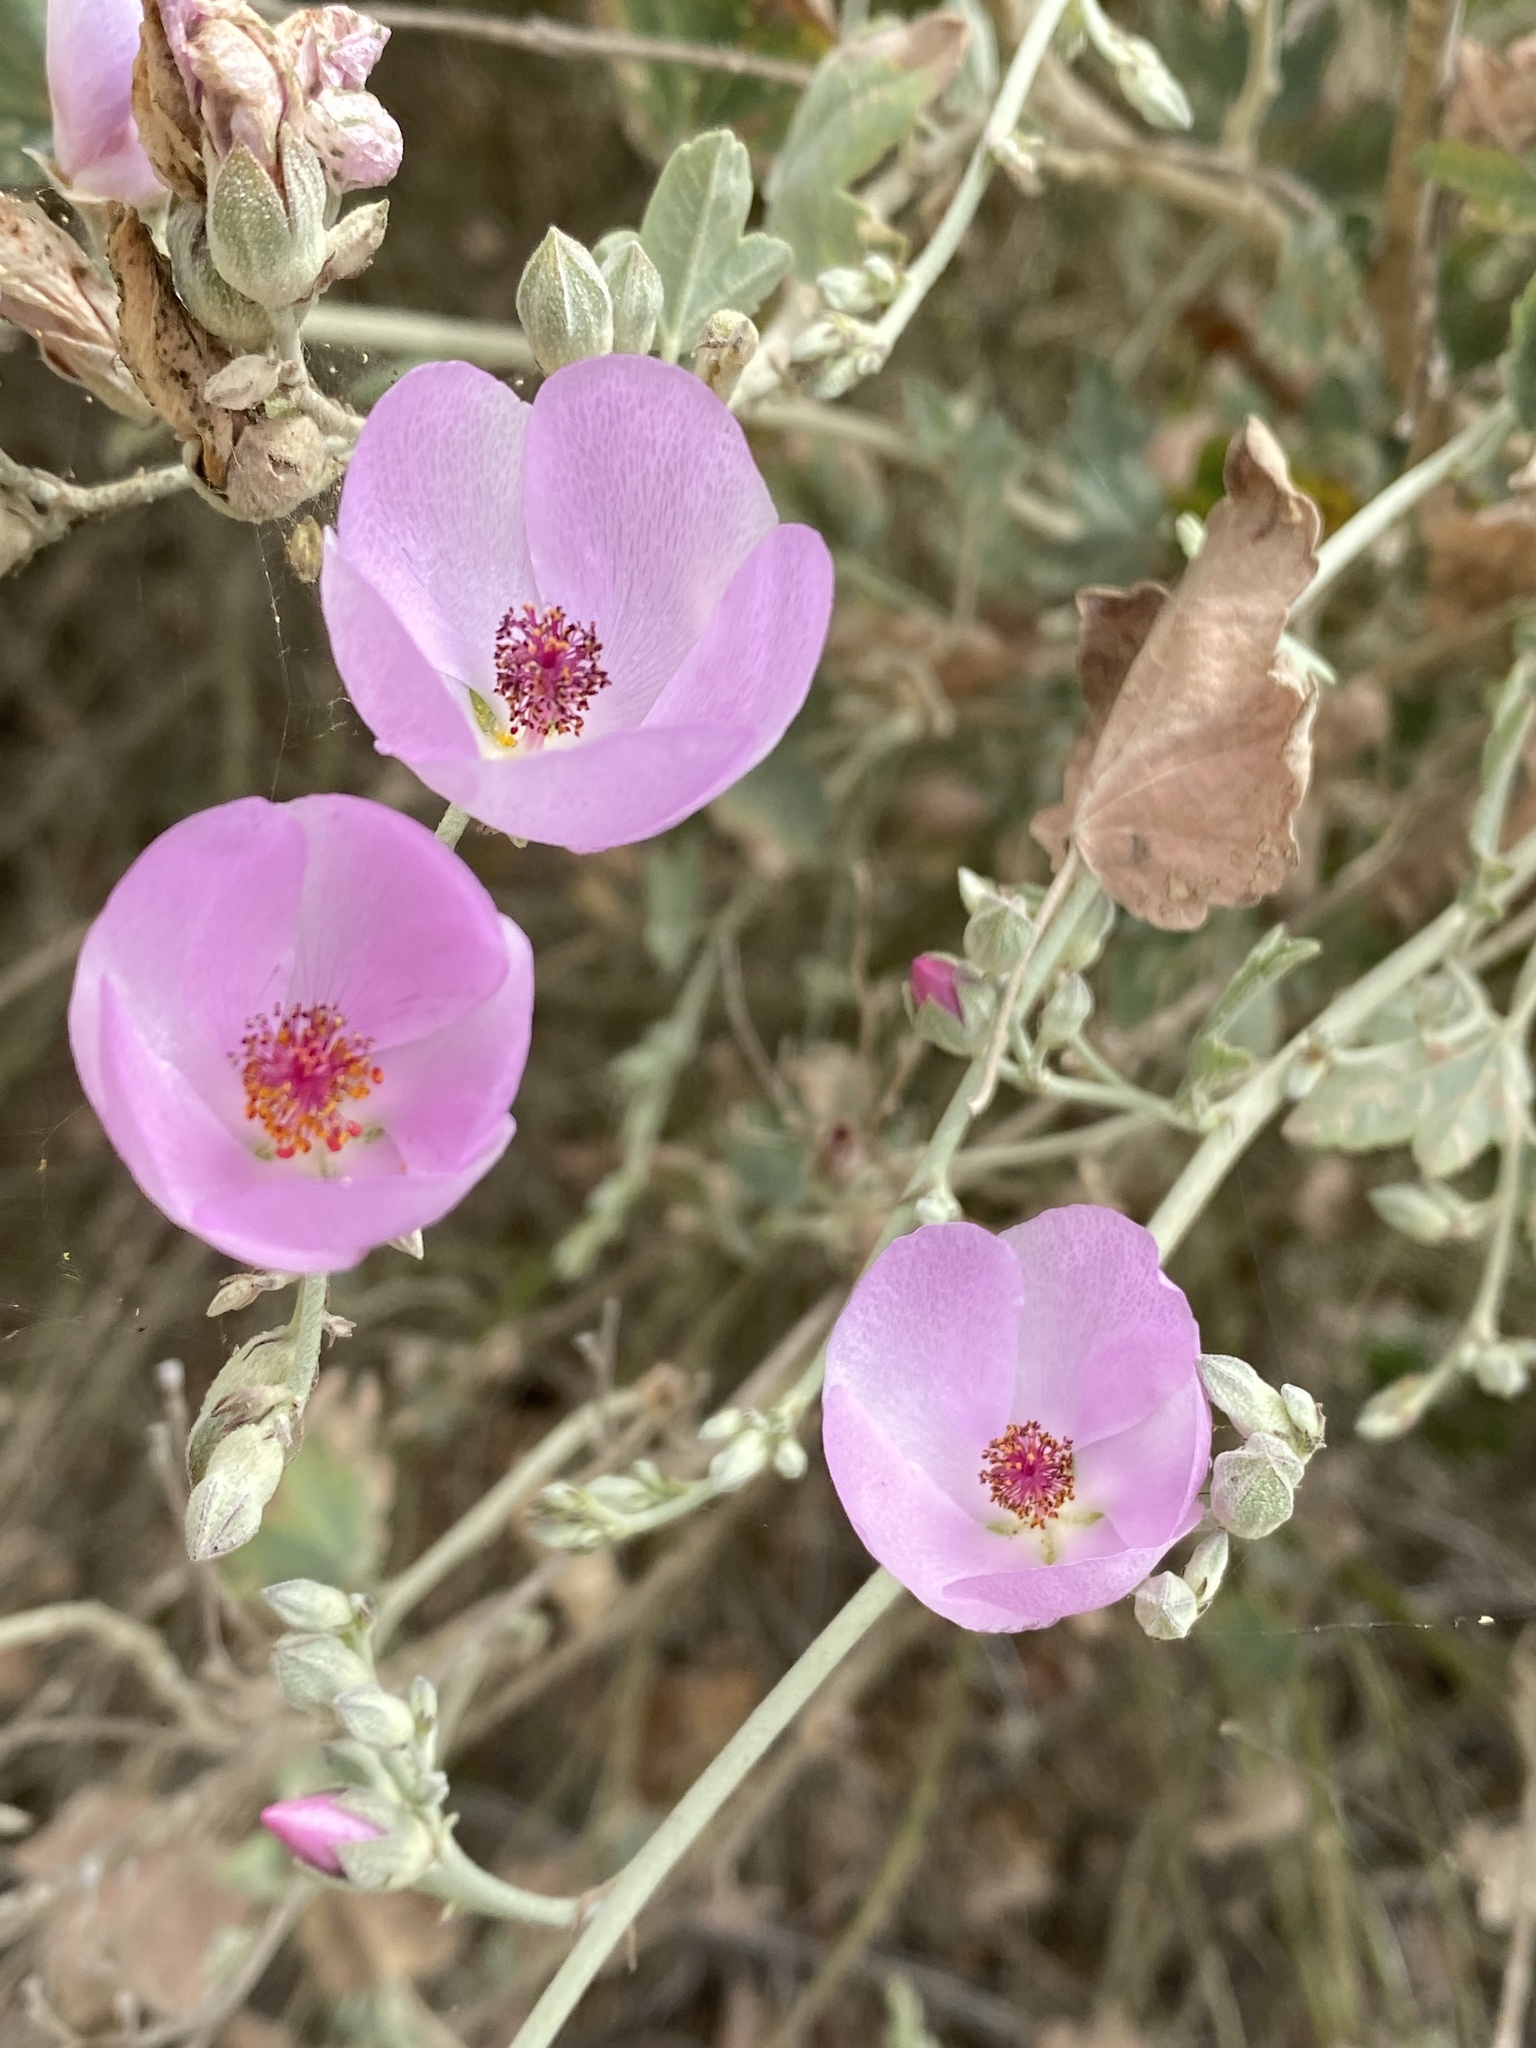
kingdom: Plantae
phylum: Tracheophyta
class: Magnoliopsida
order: Malvales
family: Malvaceae
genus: Malacothamnus
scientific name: Malacothamnus fasciculatus
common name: Sant cruz island bush-mallow
